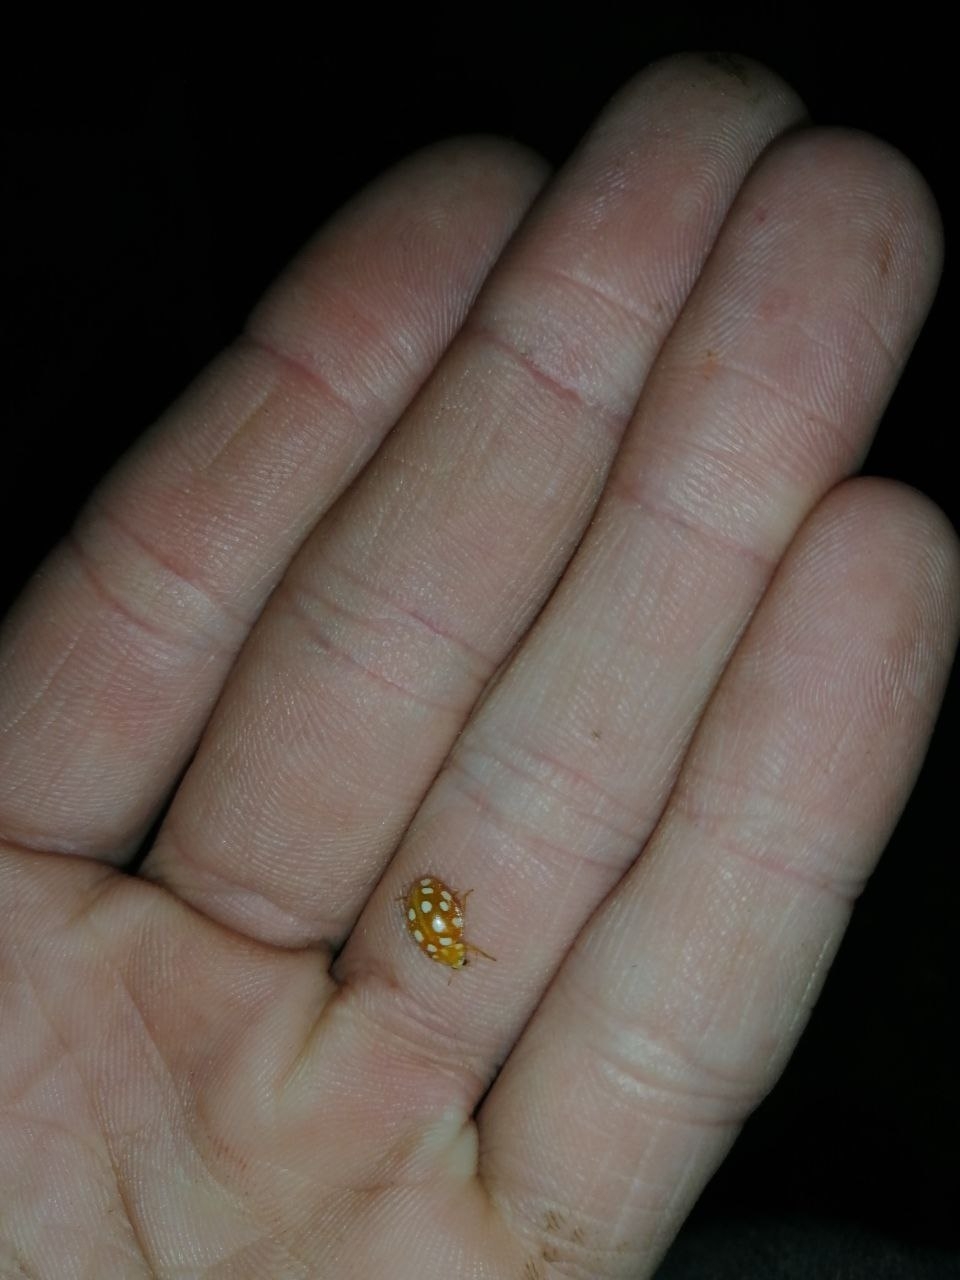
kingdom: Animalia
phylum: Arthropoda
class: Insecta
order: Coleoptera
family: Coccinellidae
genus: Halyzia
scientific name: Halyzia sedecimguttata
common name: Orange ladybird
